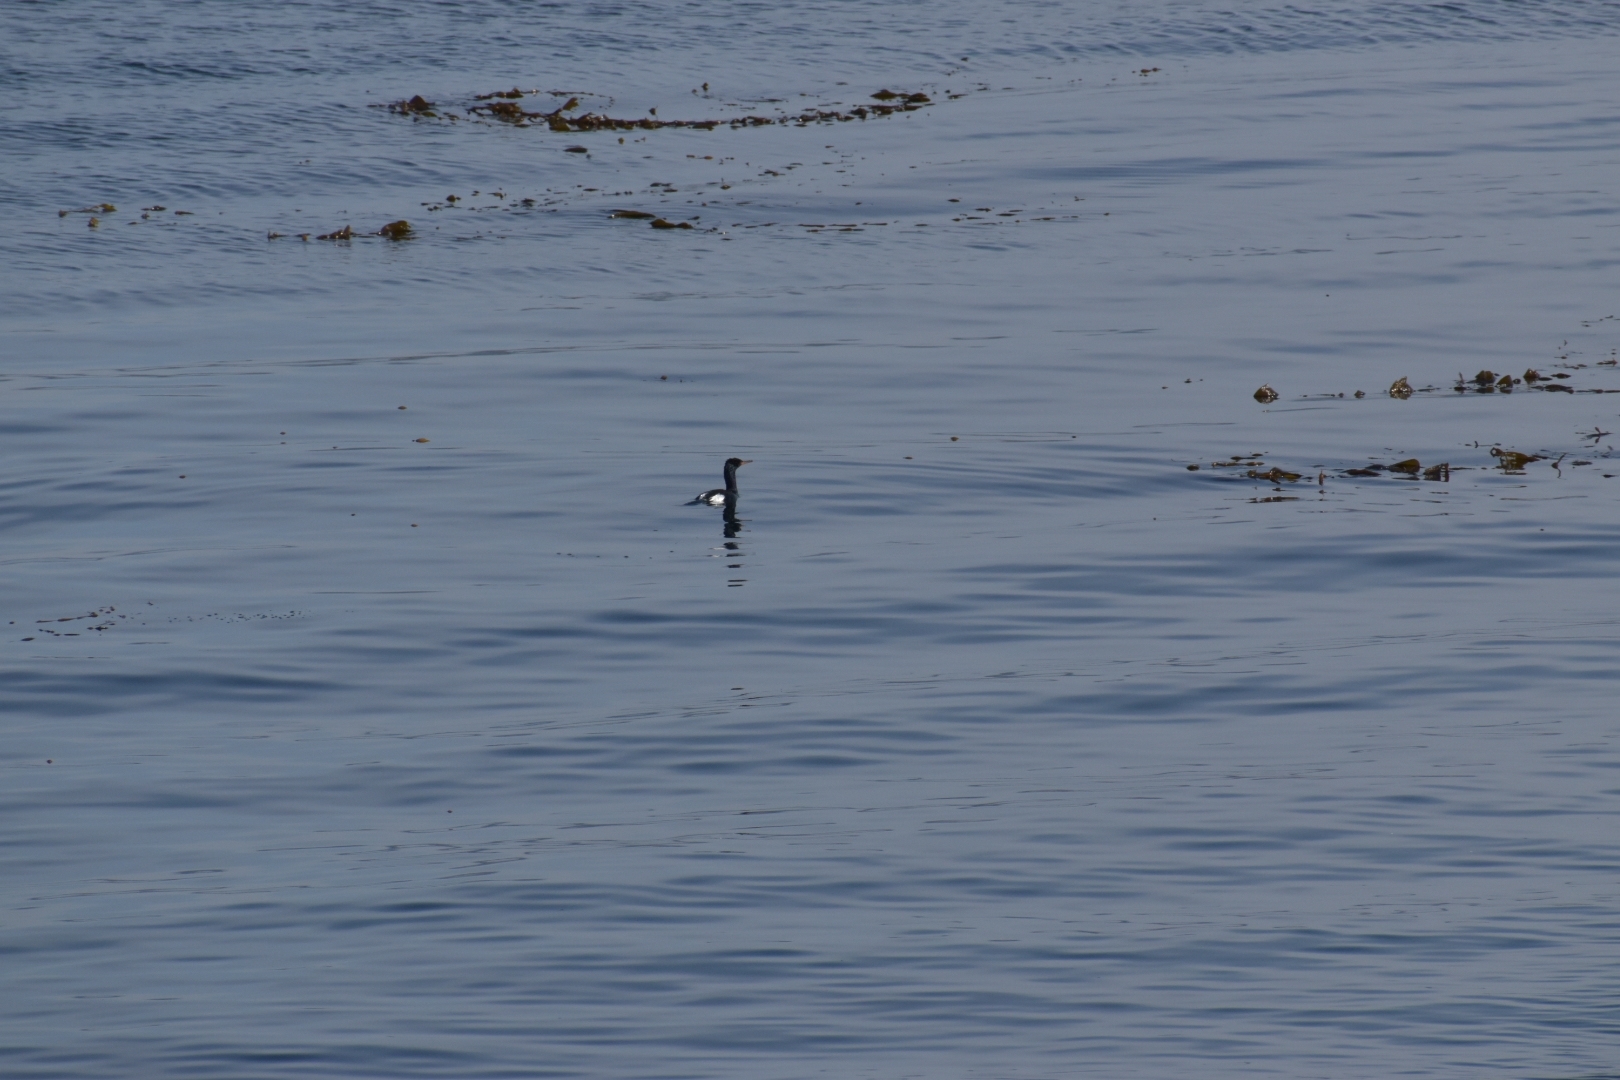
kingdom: Animalia
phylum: Chordata
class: Aves
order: Suliformes
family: Phalacrocoracidae
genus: Phalacrocorax
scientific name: Phalacrocorax pelagicus
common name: Pelagic cormorant
